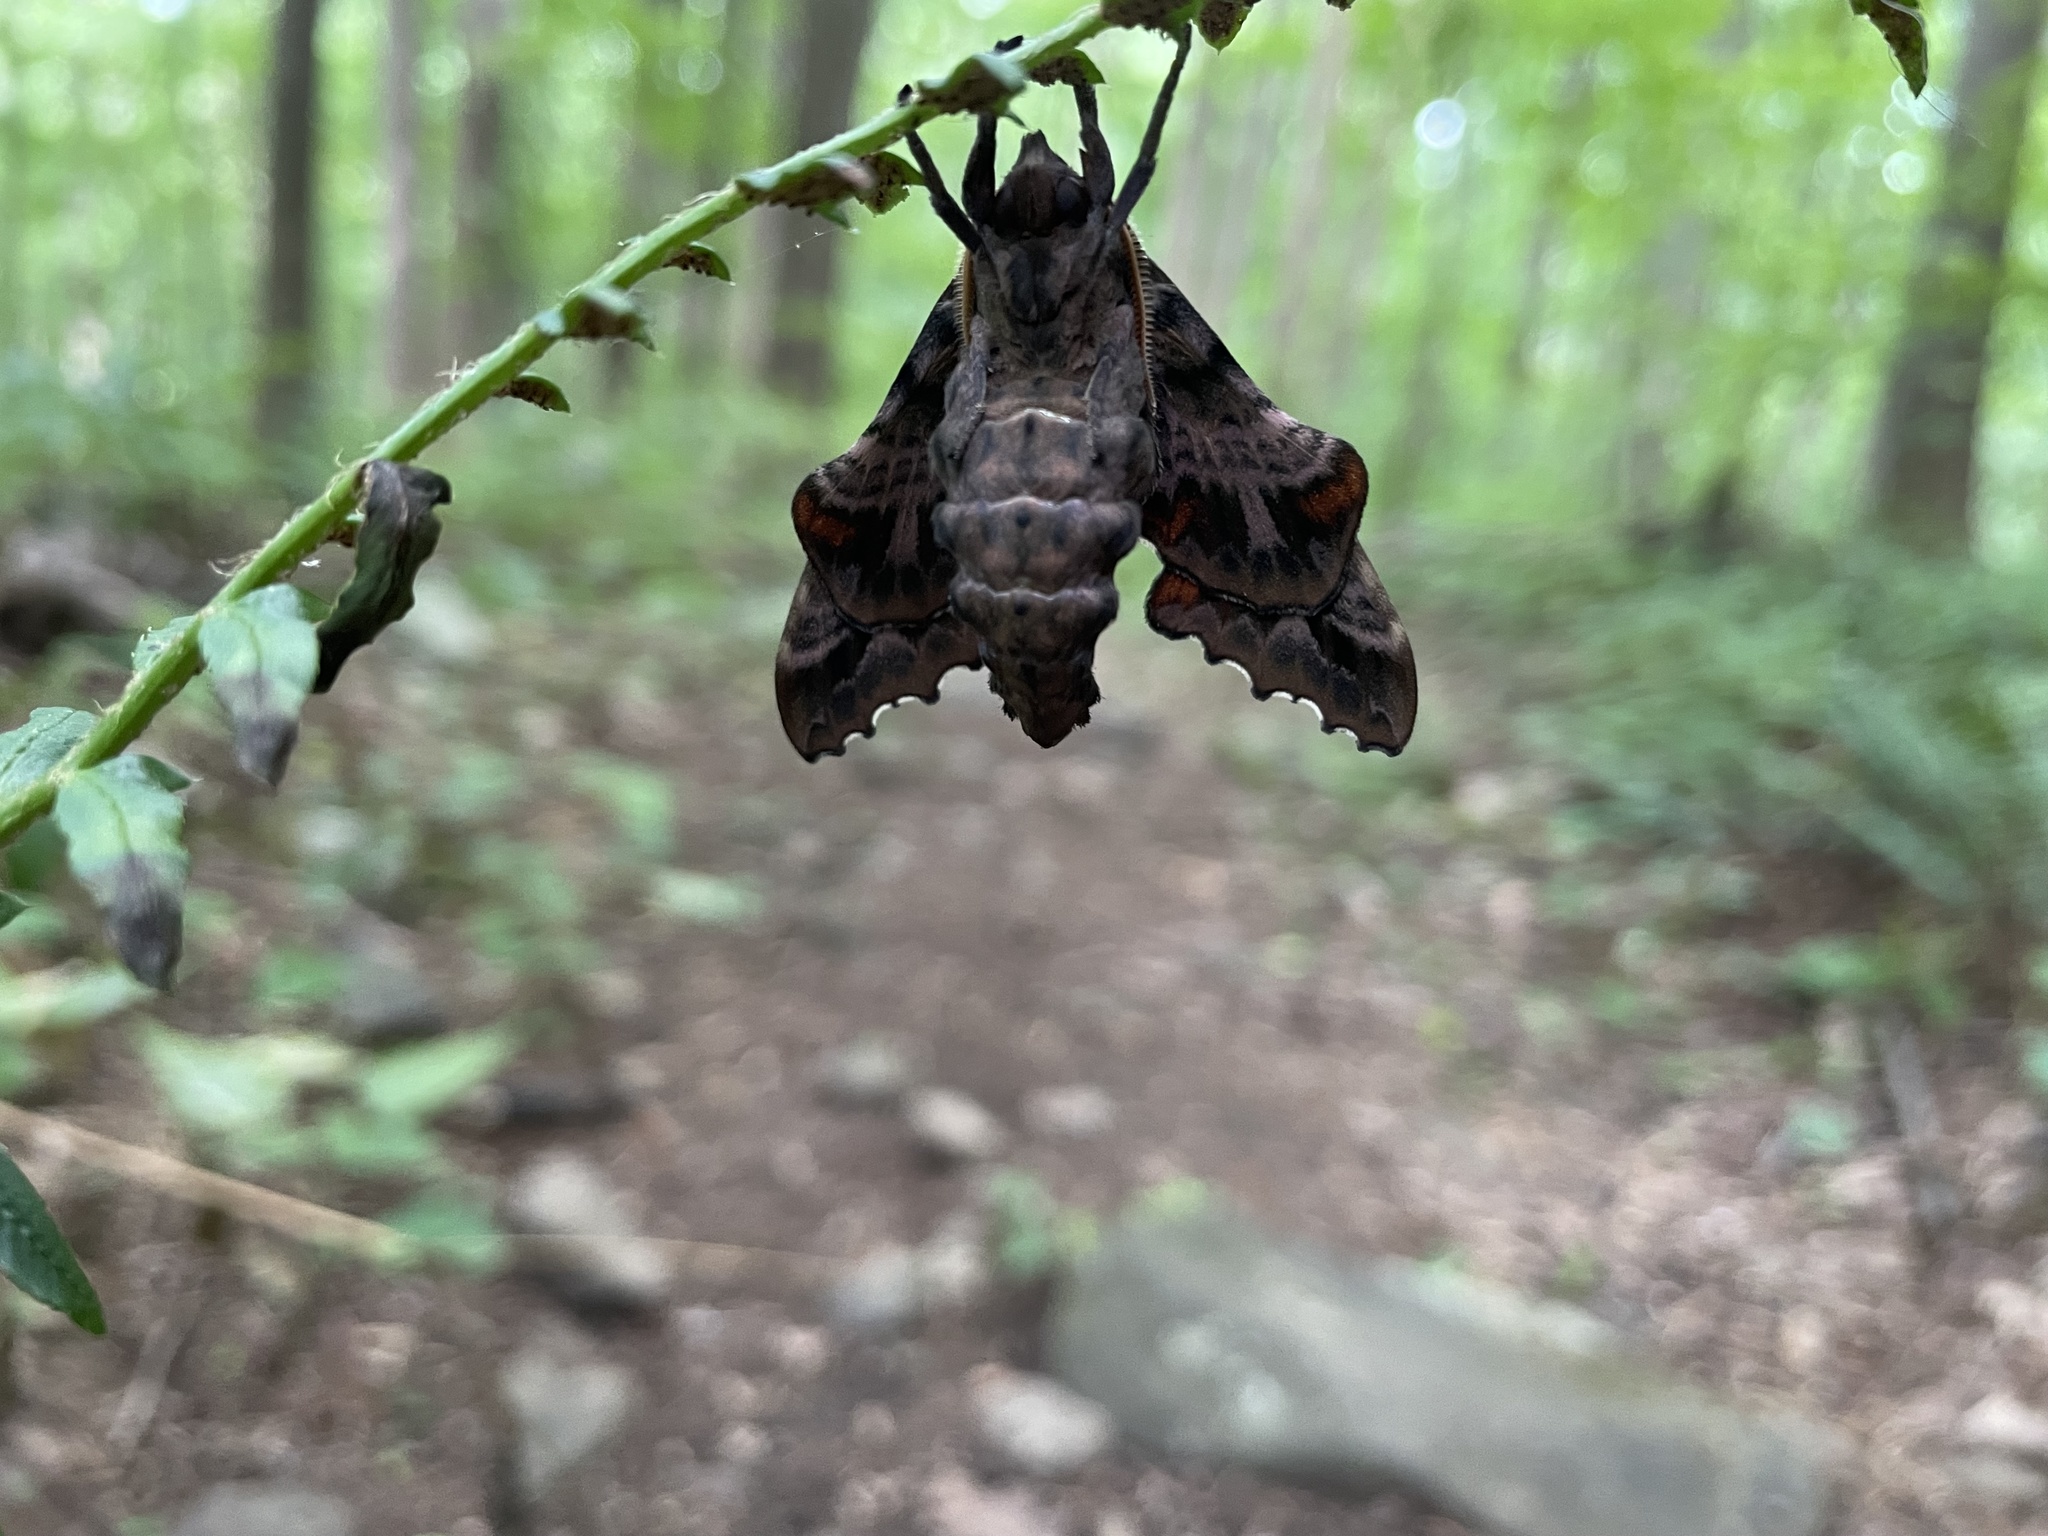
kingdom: Animalia
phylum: Arthropoda
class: Insecta
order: Lepidoptera
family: Sphingidae
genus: Paonias
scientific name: Paonias excaecata
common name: Blind-eyed sphinx
